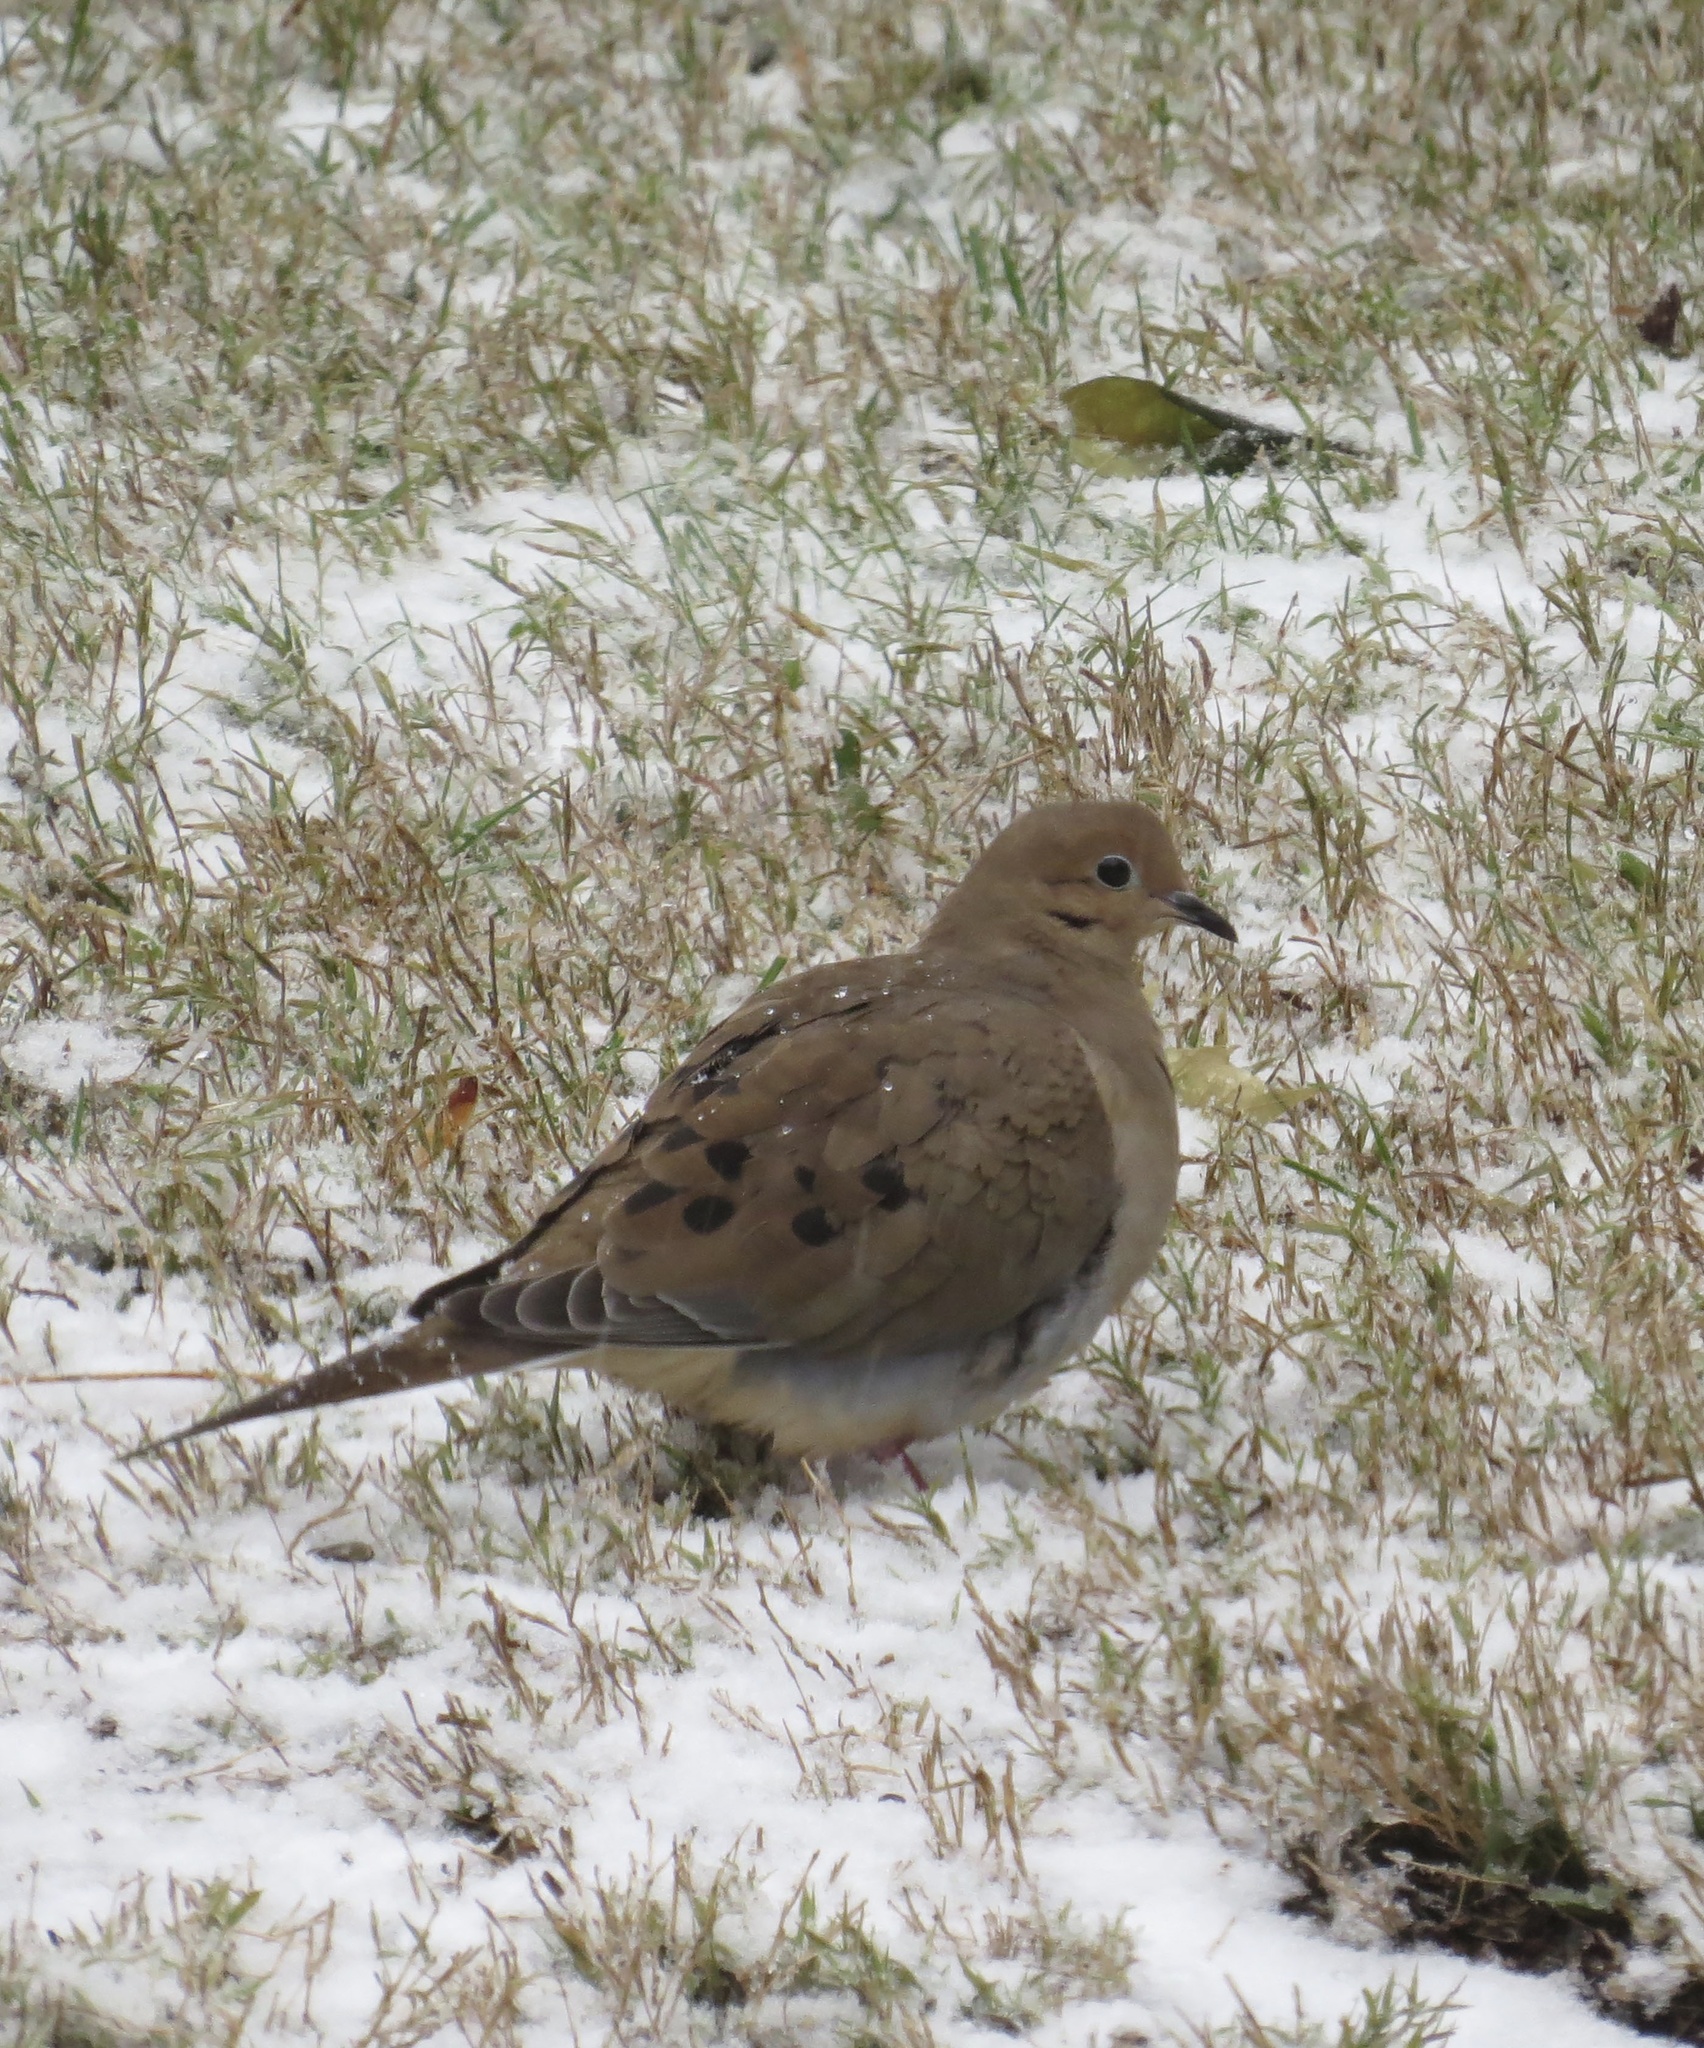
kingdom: Animalia
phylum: Chordata
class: Aves
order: Columbiformes
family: Columbidae
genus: Zenaida
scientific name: Zenaida macroura
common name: Mourning dove
